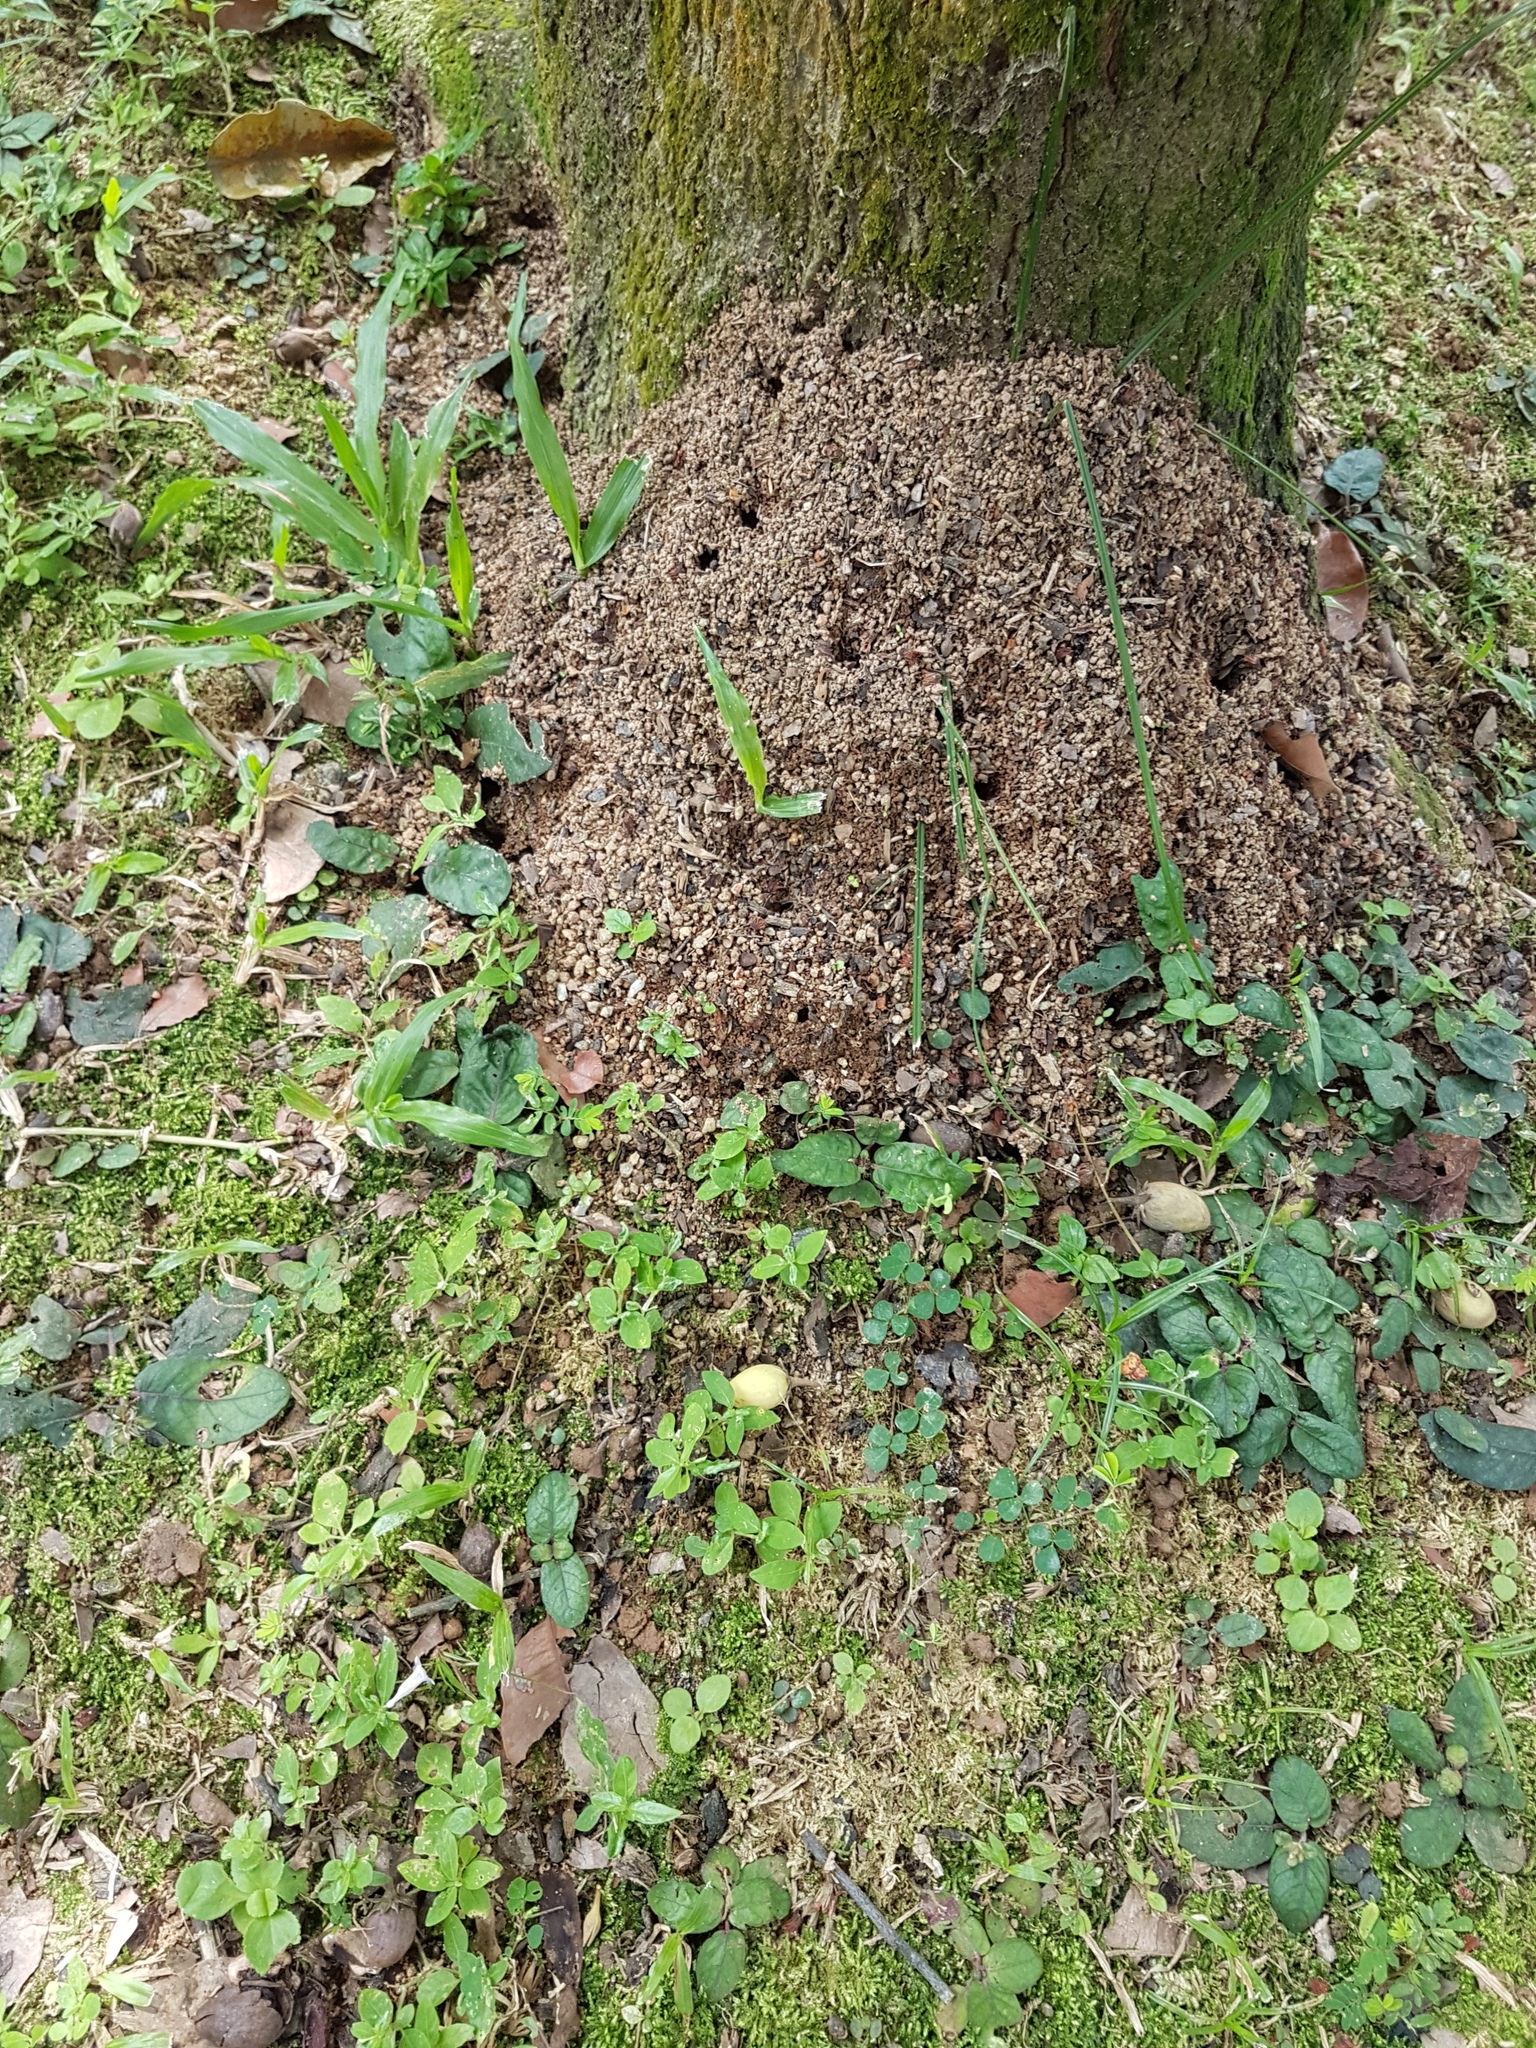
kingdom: Animalia
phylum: Arthropoda
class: Insecta
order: Hymenoptera
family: Formicidae
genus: Odontomachus
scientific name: Odontomachus simillimus
